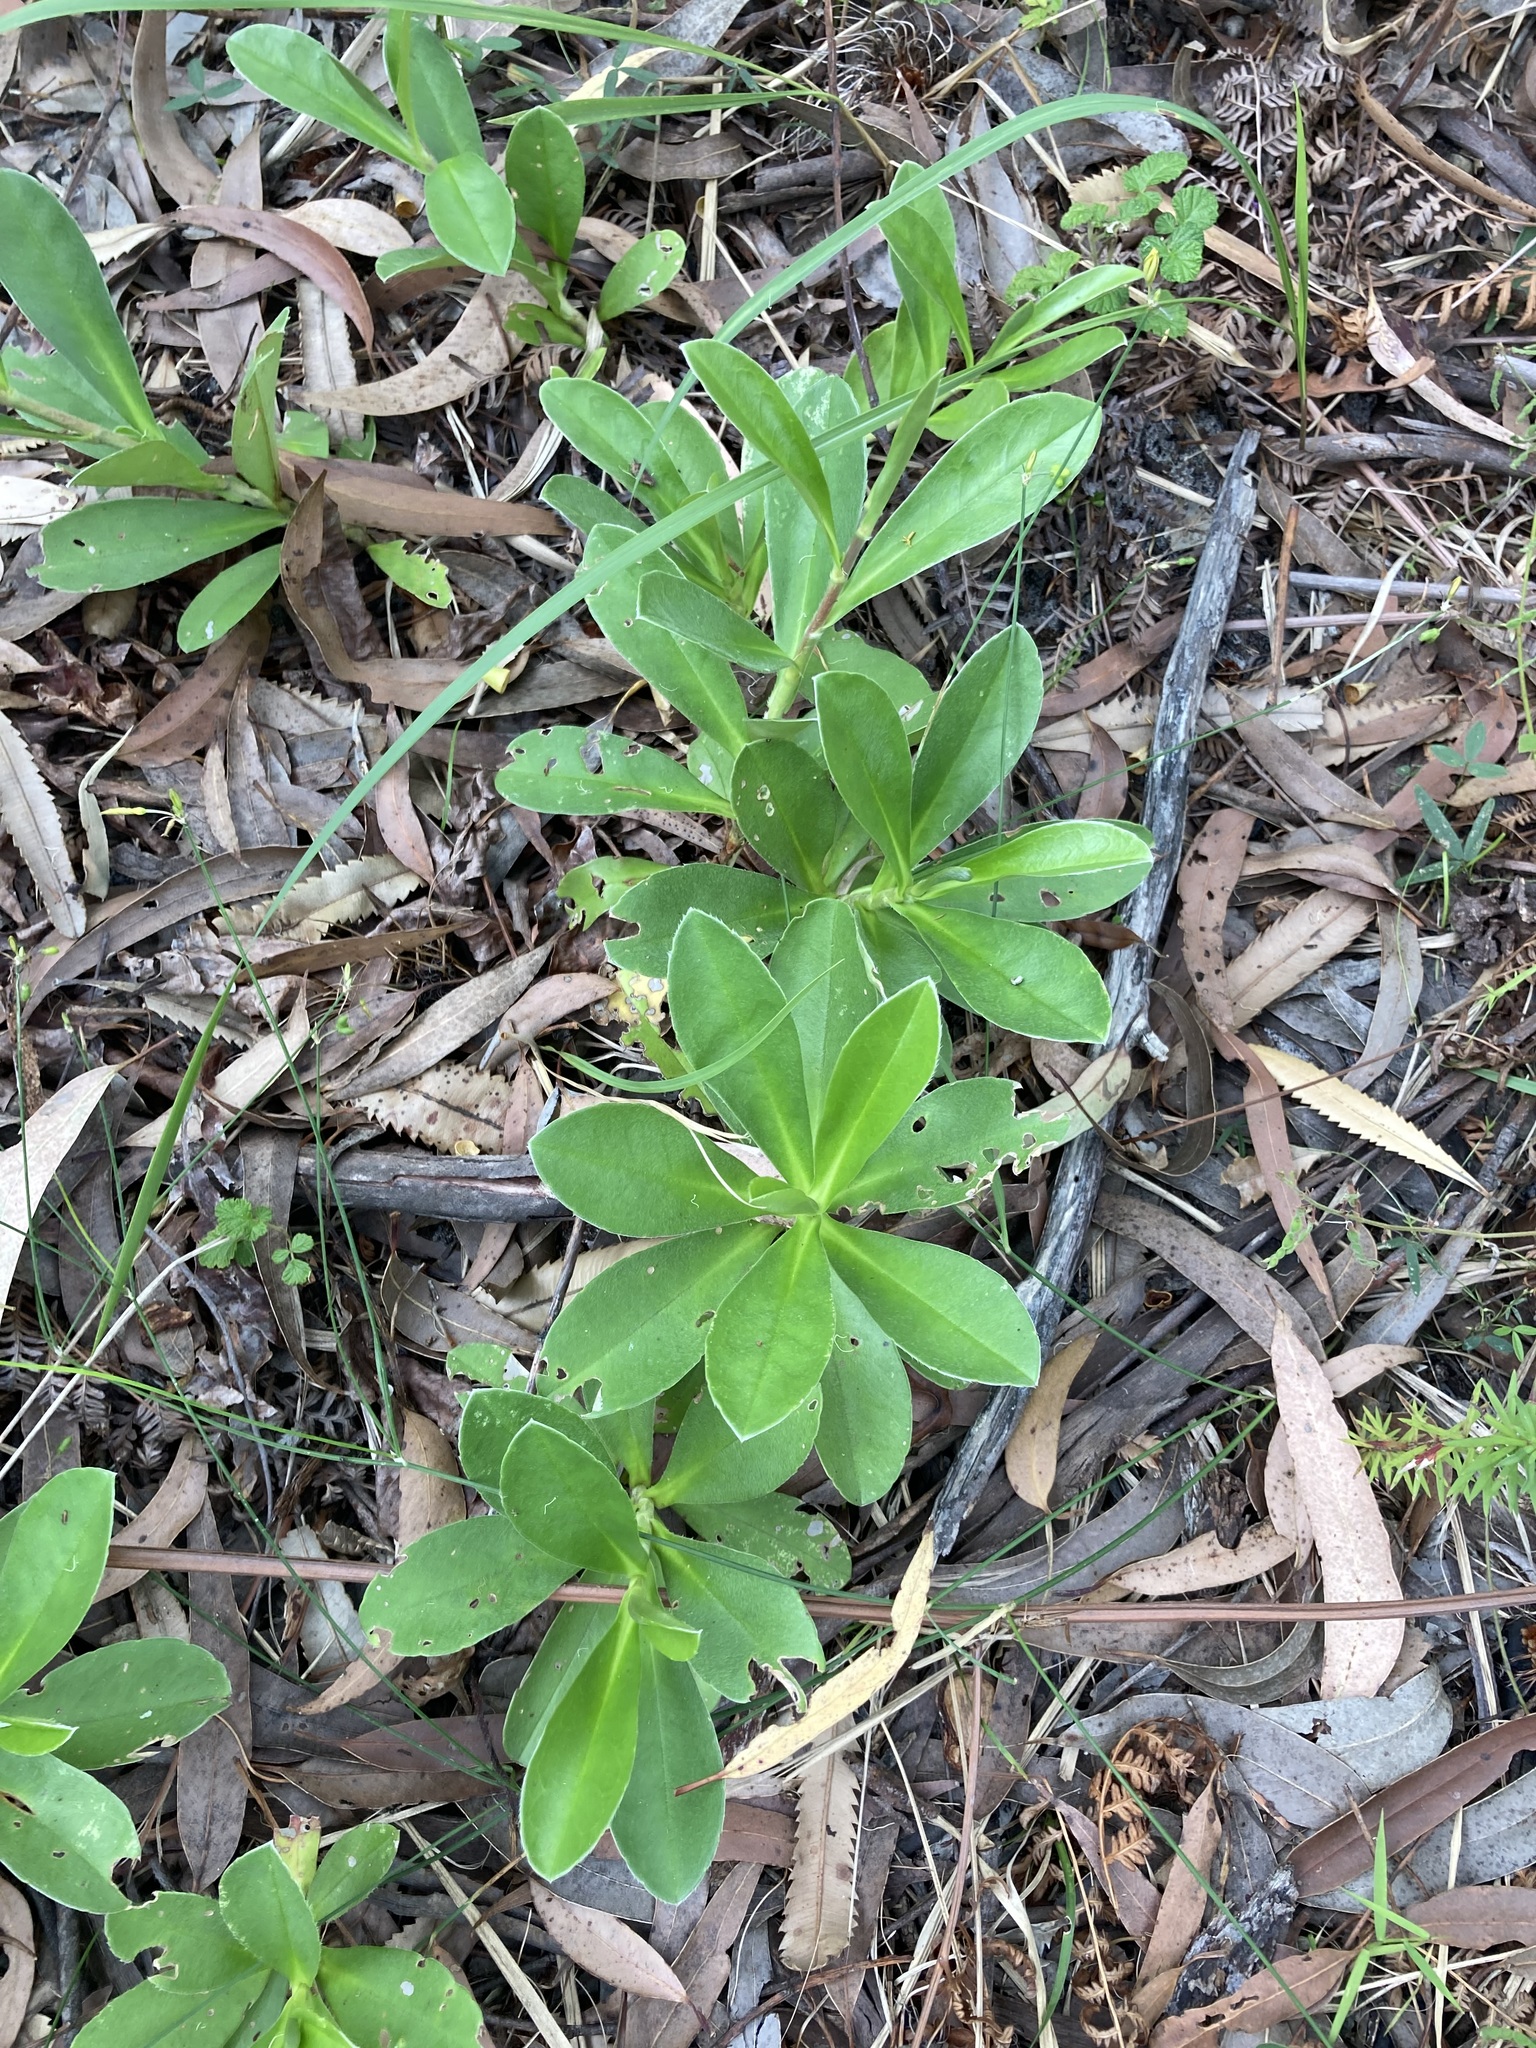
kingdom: Plantae
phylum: Tracheophyta
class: Magnoliopsida
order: Dilleniales
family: Dilleniaceae
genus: Hibbertia
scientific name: Hibbertia scandens
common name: Climbing guinea-flower
